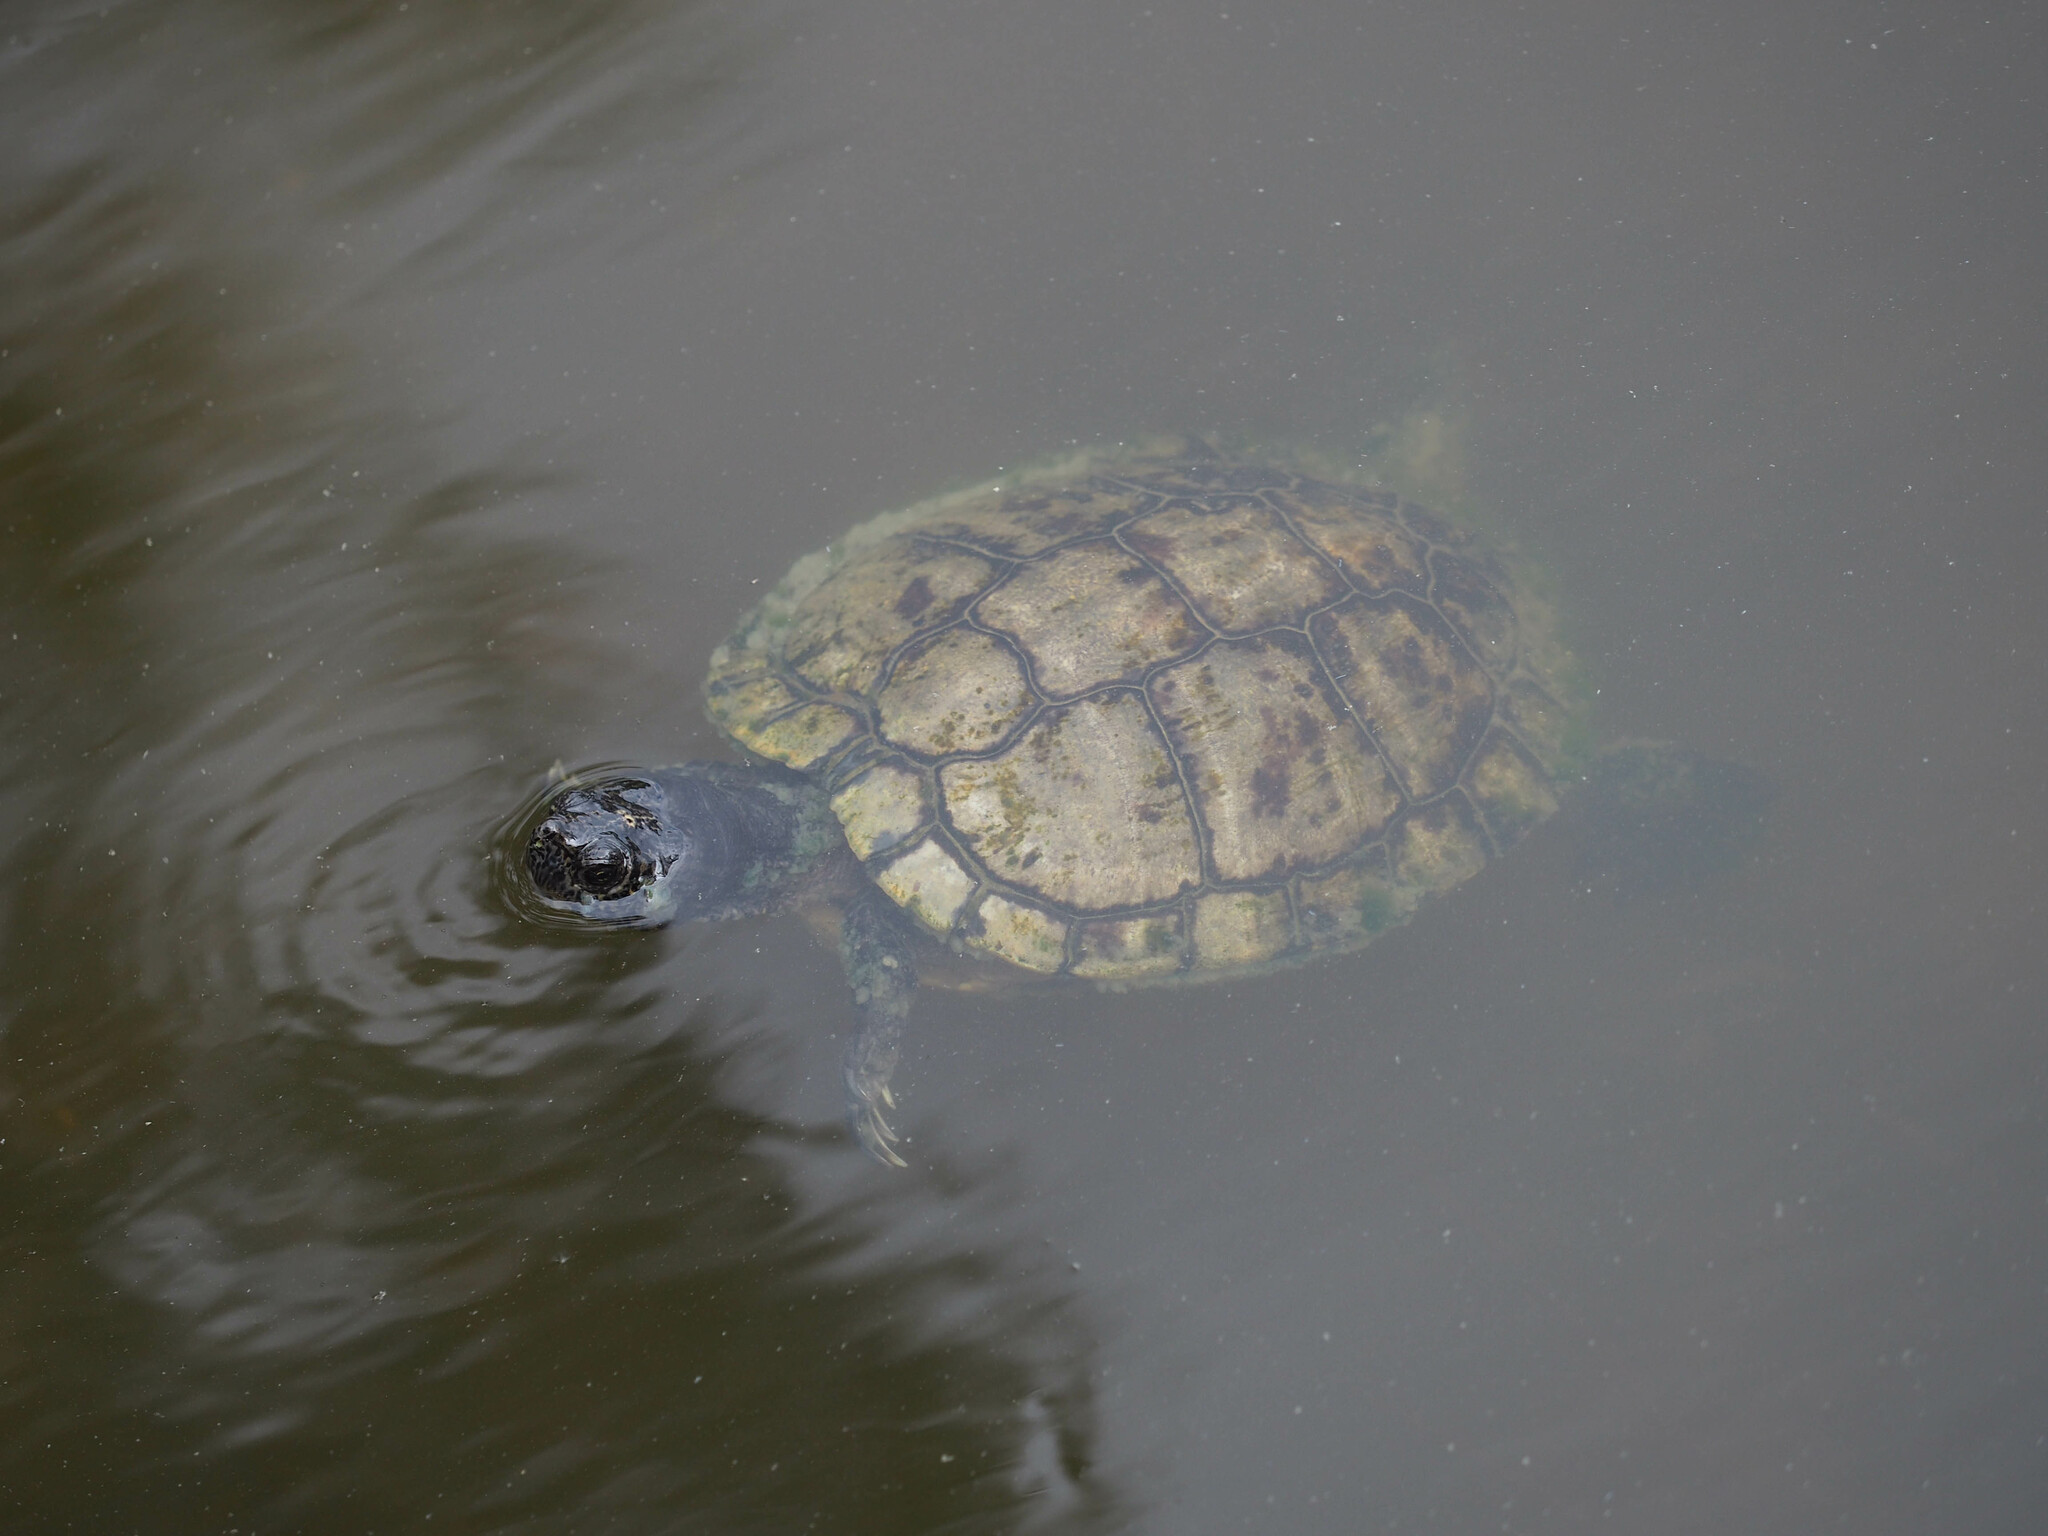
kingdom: Animalia
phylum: Chordata
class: Testudines
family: Emydidae
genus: Trachemys
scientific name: Trachemys scripta
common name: Slider
